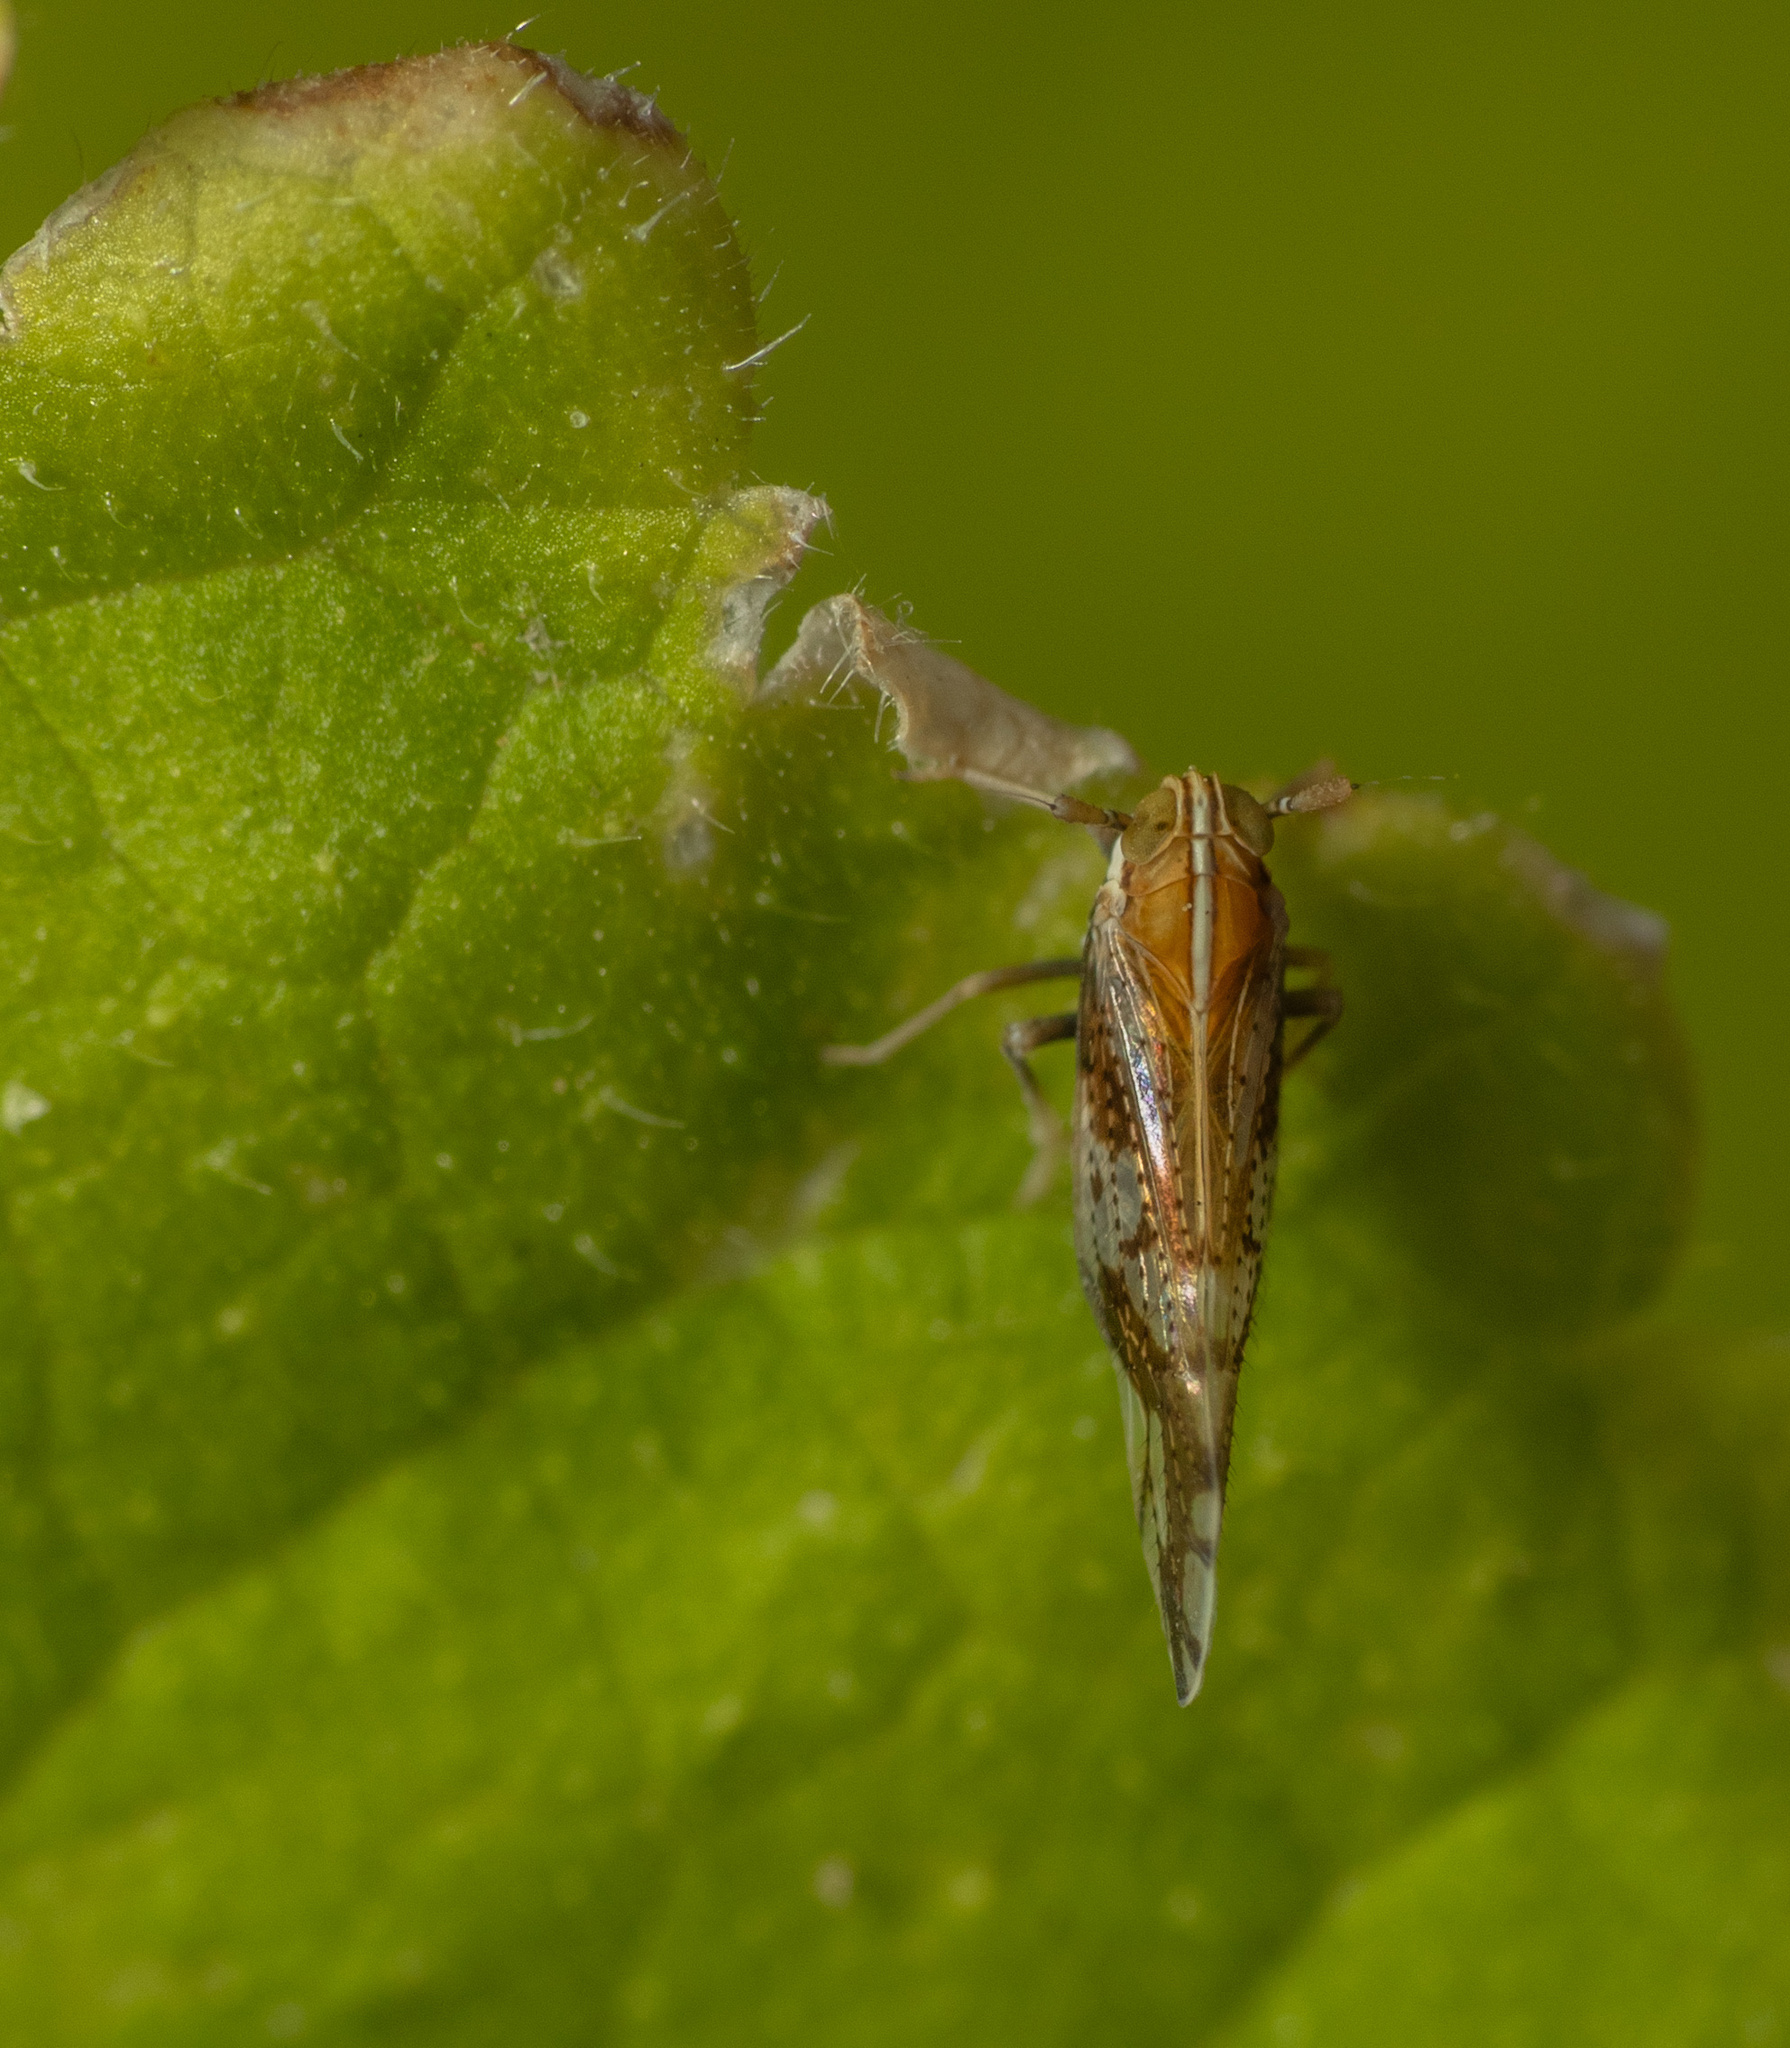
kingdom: Animalia
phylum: Arthropoda
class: Insecta
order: Hemiptera
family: Delphacidae
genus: Liburniella
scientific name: Liburniella ornata
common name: Ornate planthopper
